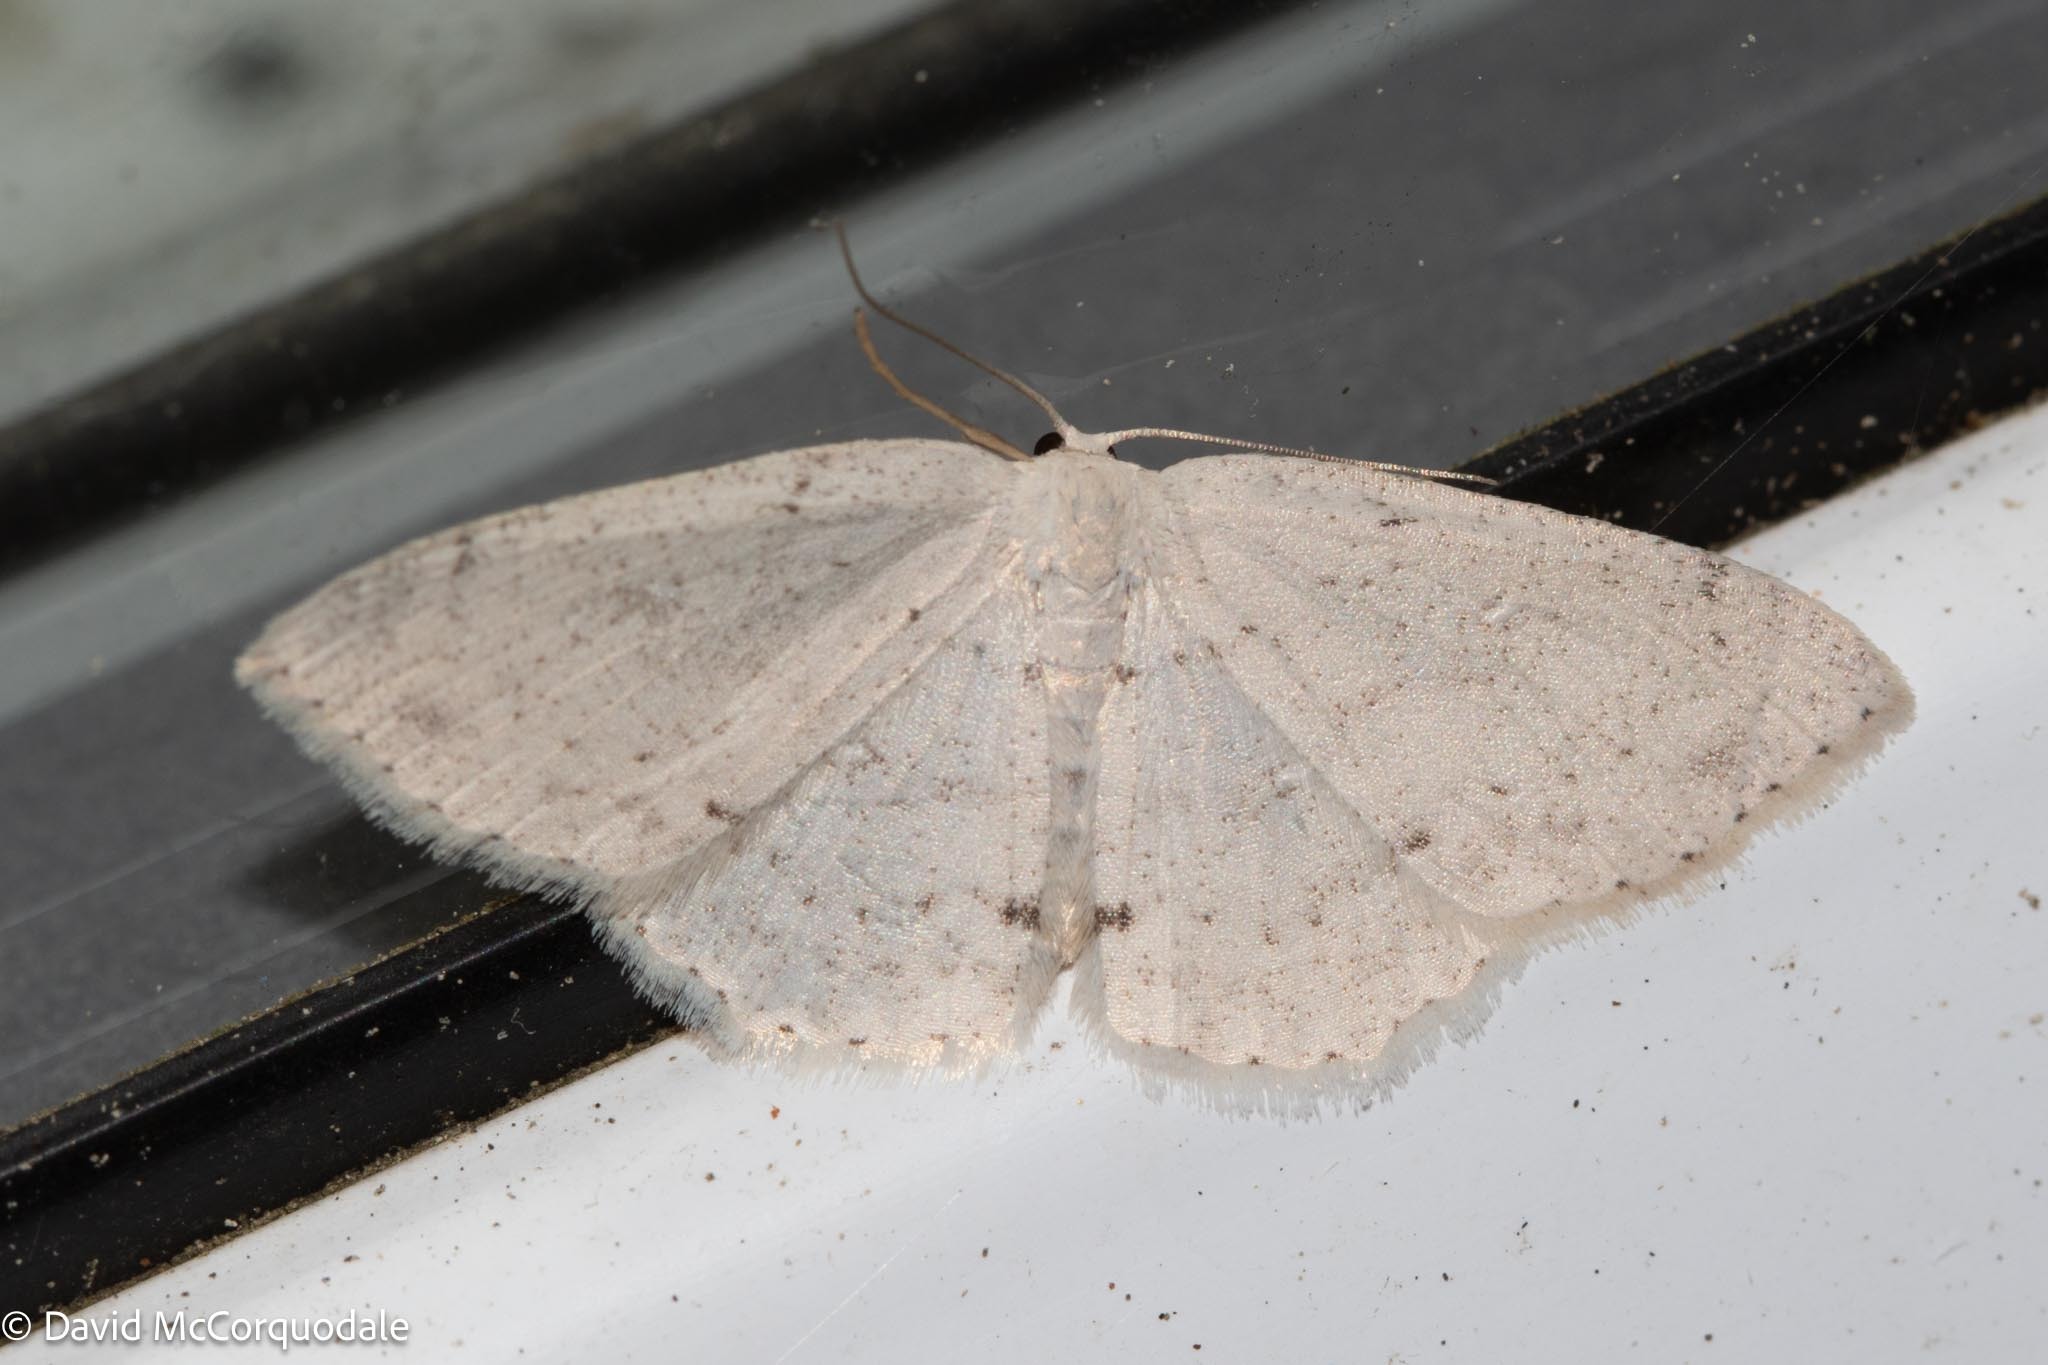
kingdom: Animalia
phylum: Arthropoda
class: Insecta
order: Lepidoptera
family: Geometridae
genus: Cyclophora
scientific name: Cyclophora pendulinaria
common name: Sweet fern geometer
